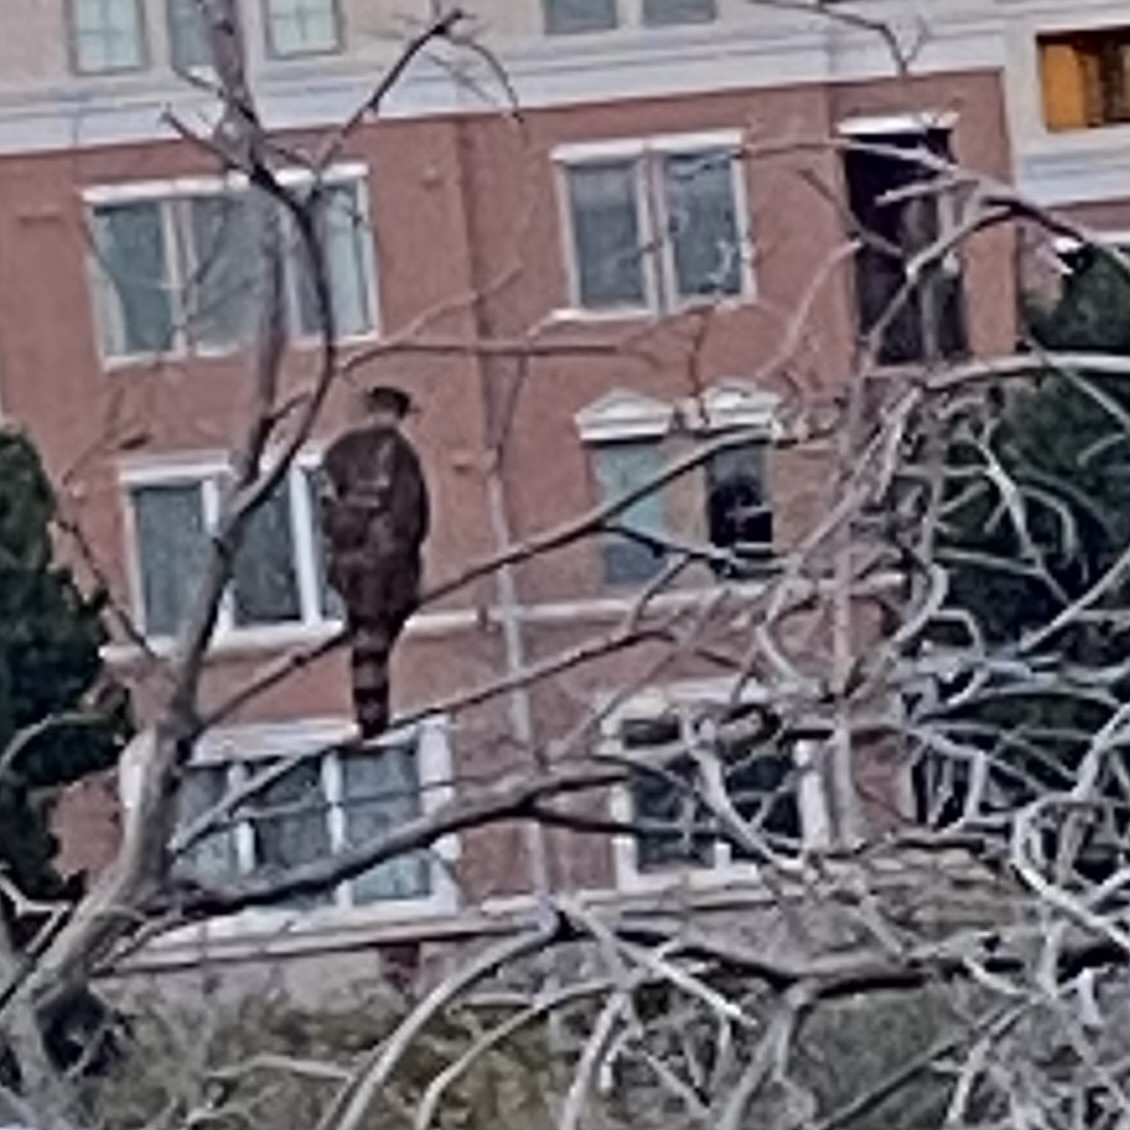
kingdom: Animalia
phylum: Chordata
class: Aves
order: Accipitriformes
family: Accipitridae
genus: Accipiter
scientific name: Accipiter cooperii
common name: Cooper's hawk
